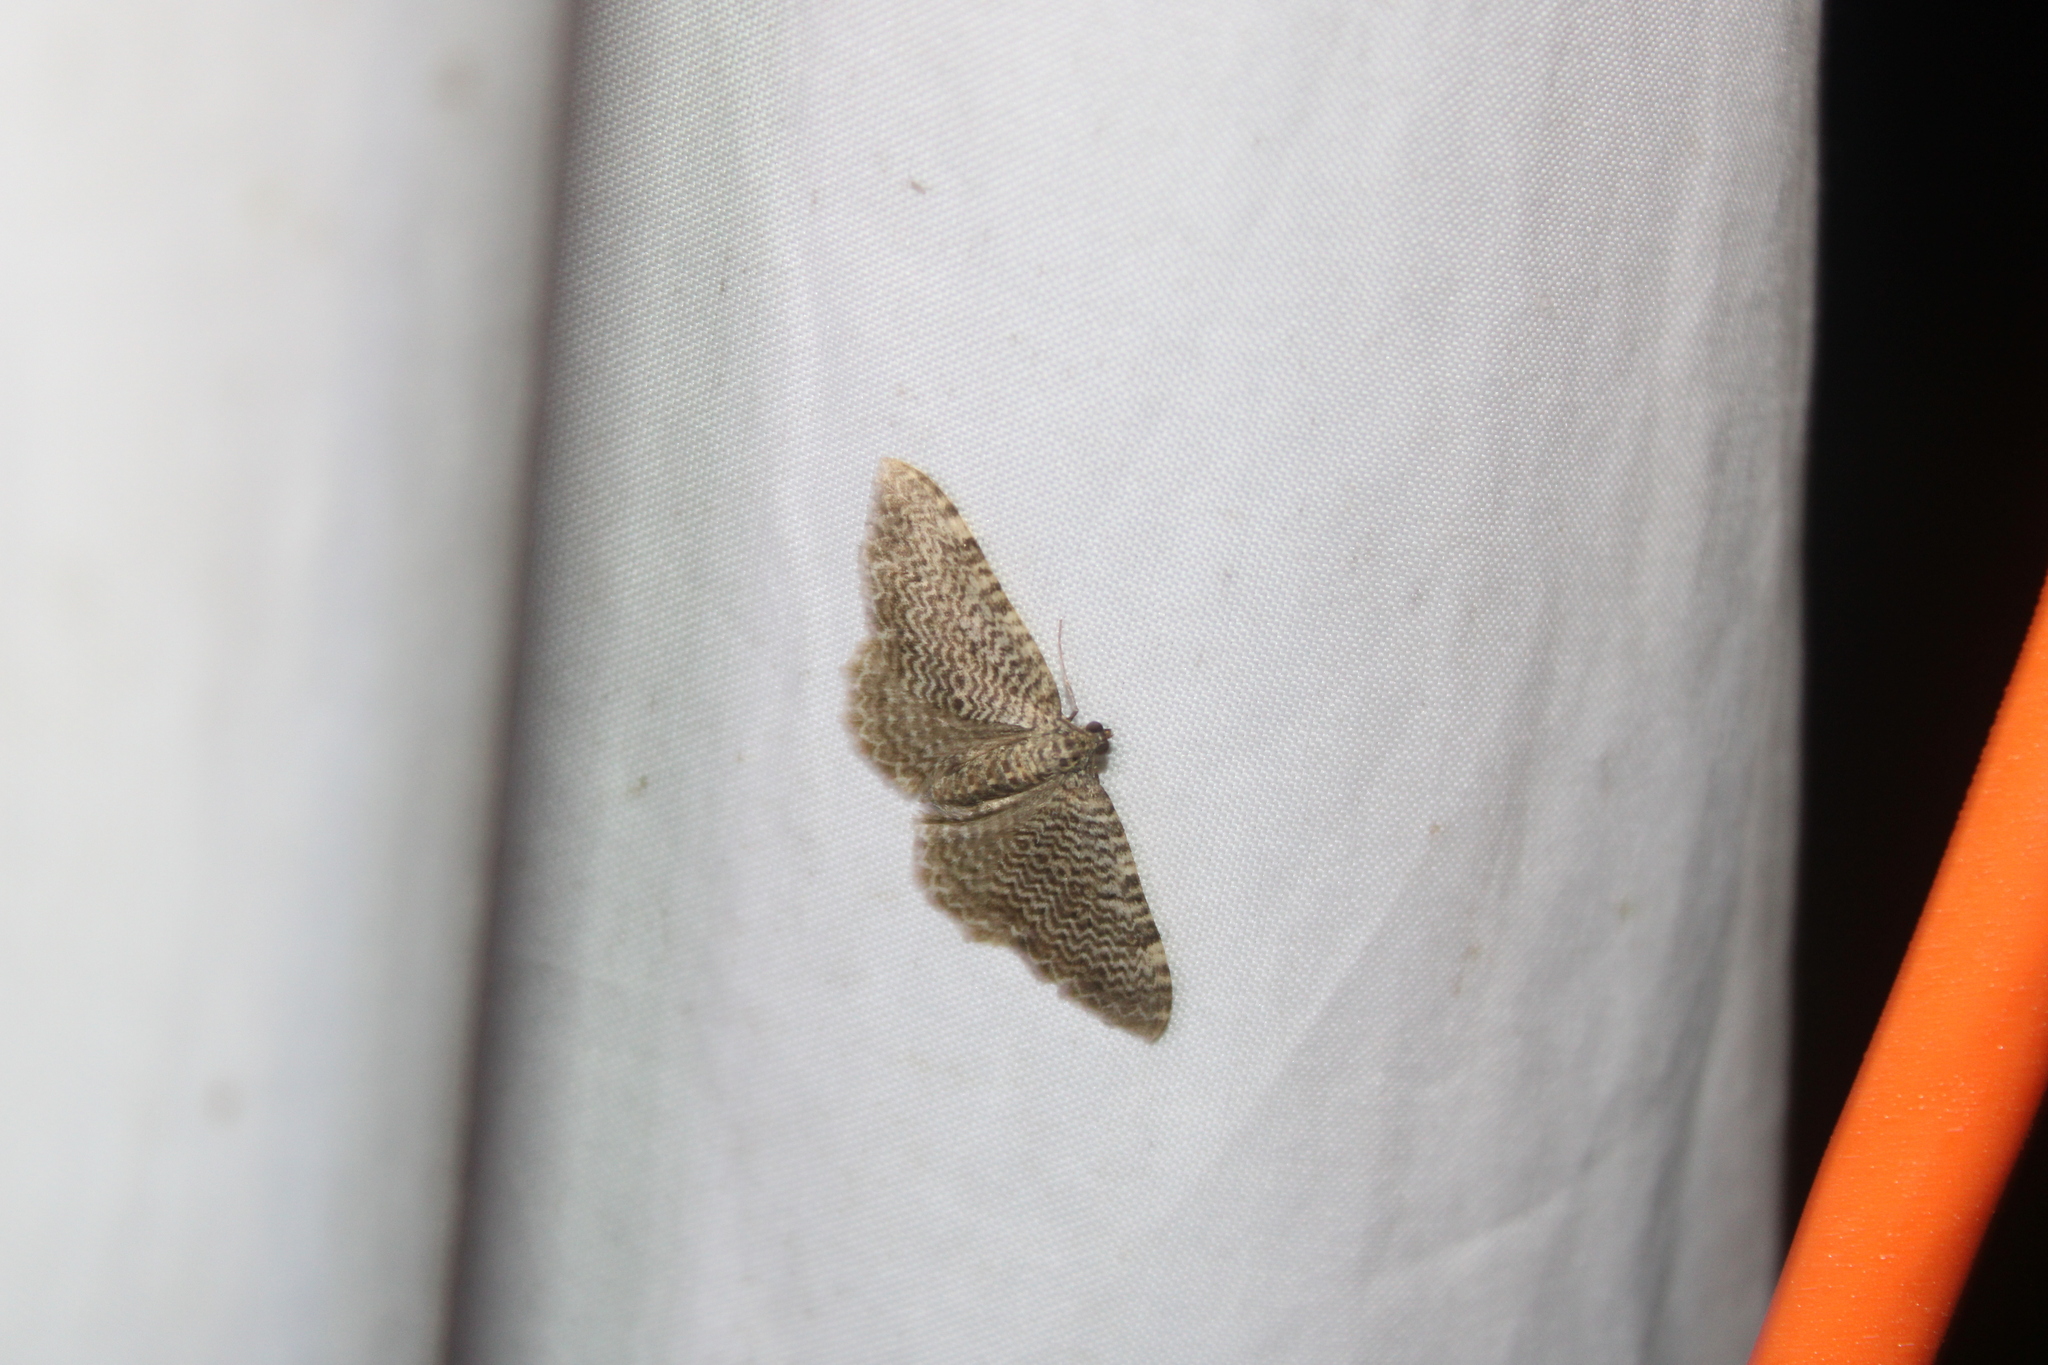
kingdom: Animalia
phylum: Arthropoda
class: Insecta
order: Lepidoptera
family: Geometridae
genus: Rheumaptera
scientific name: Rheumaptera
